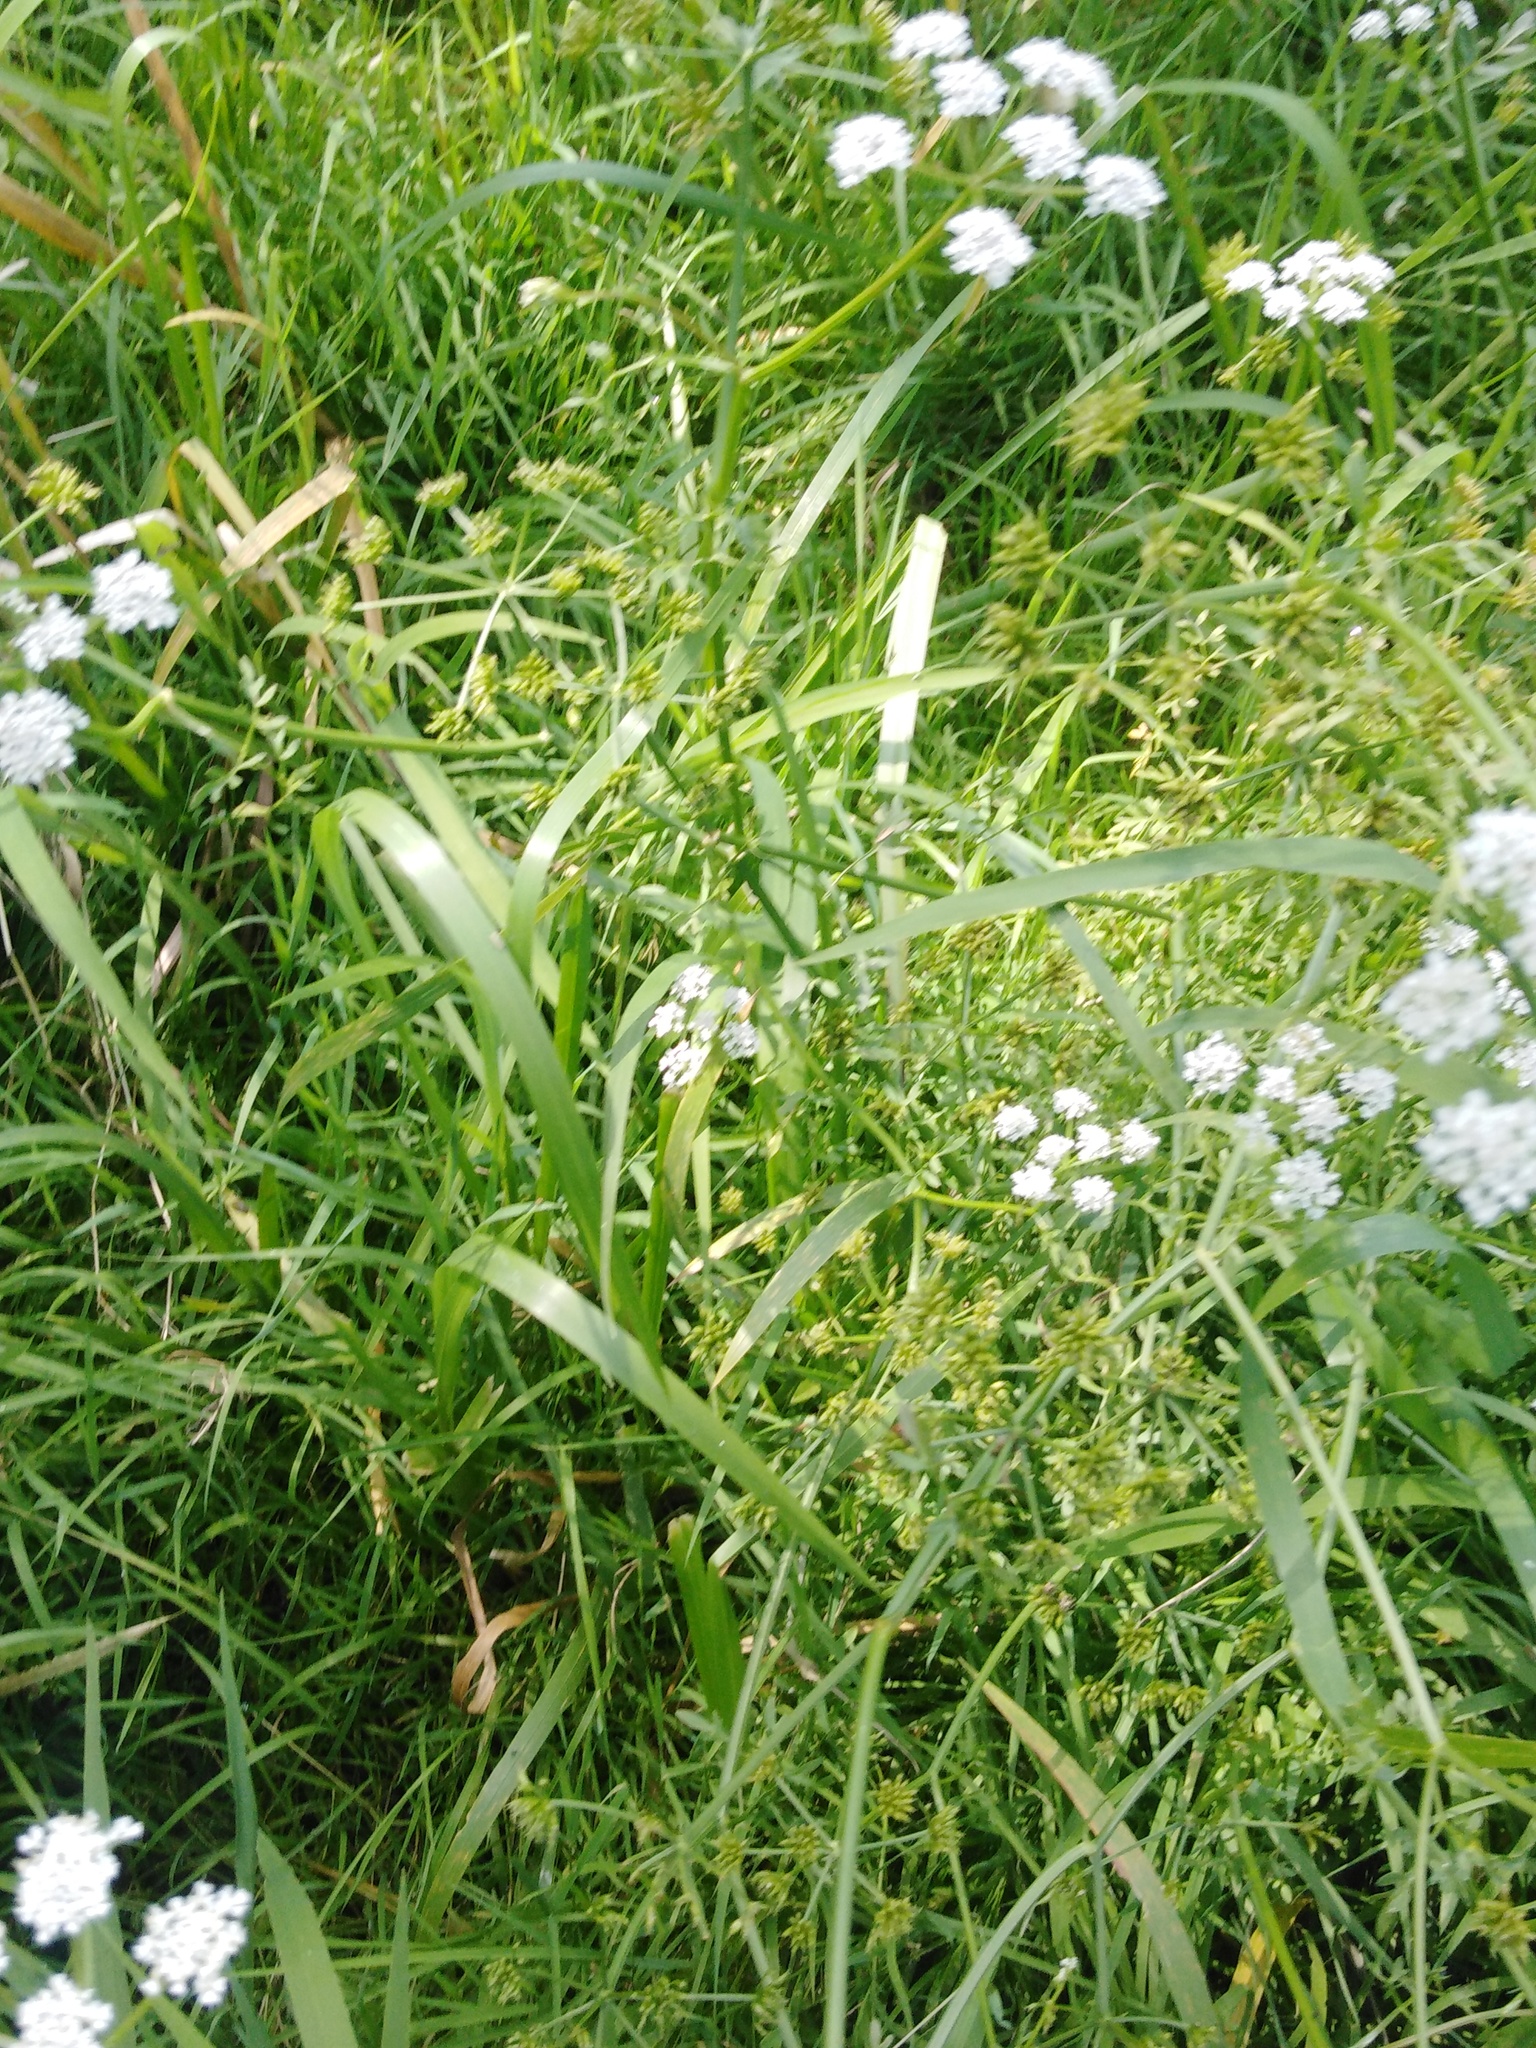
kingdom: Plantae
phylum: Tracheophyta
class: Magnoliopsida
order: Apiales
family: Apiaceae
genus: Oenanthe
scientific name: Oenanthe aquatica
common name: Fine-leaved water-dropwort
